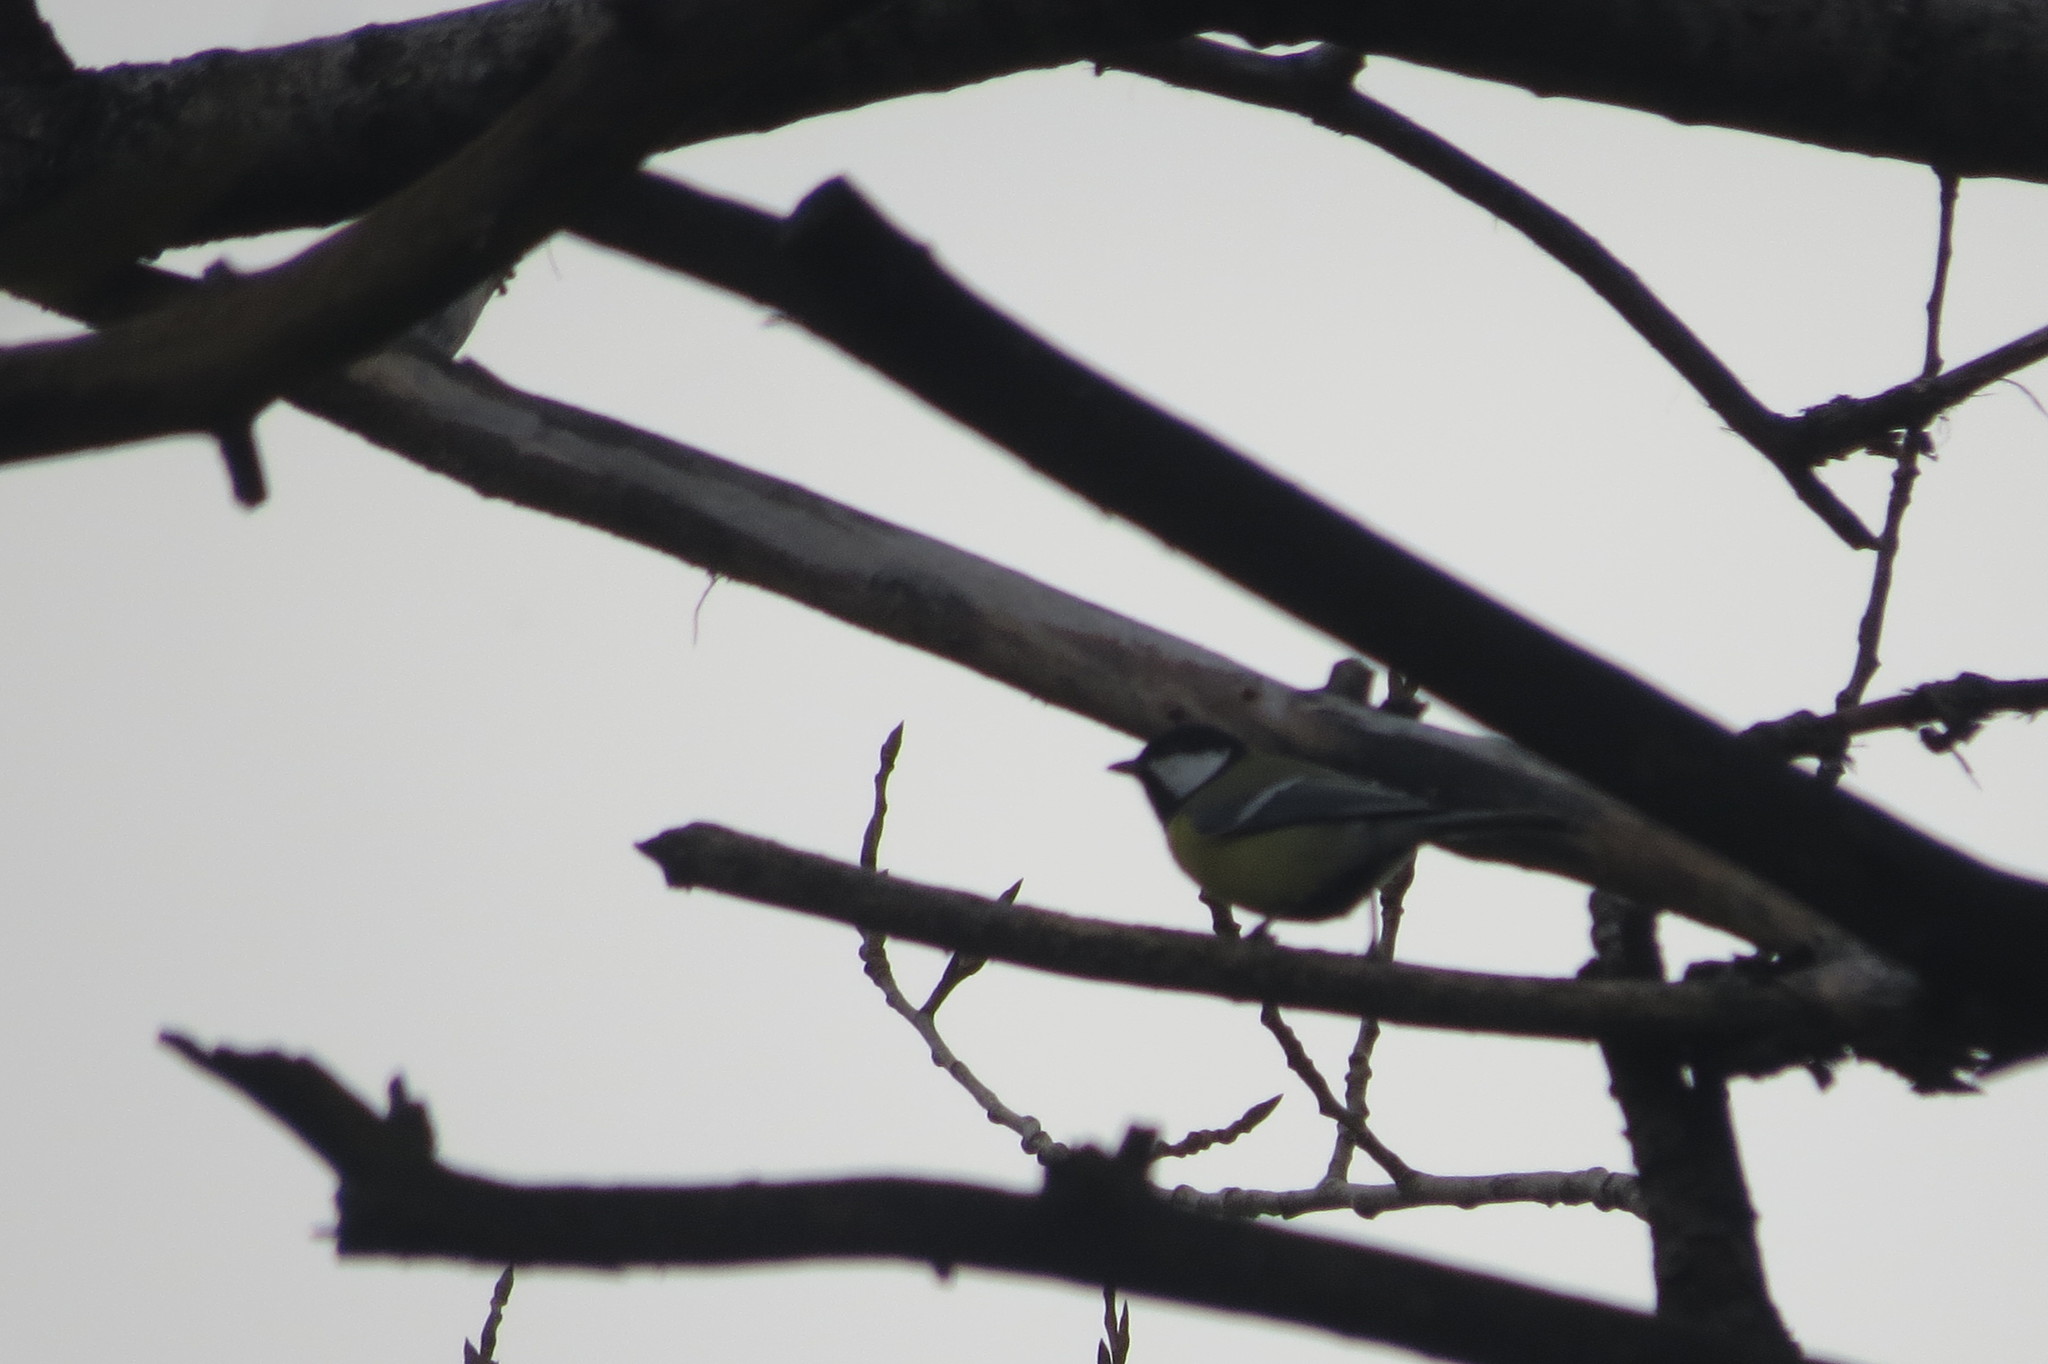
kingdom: Animalia
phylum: Chordata
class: Aves
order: Passeriformes
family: Paridae
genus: Parus
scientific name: Parus major
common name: Great tit
